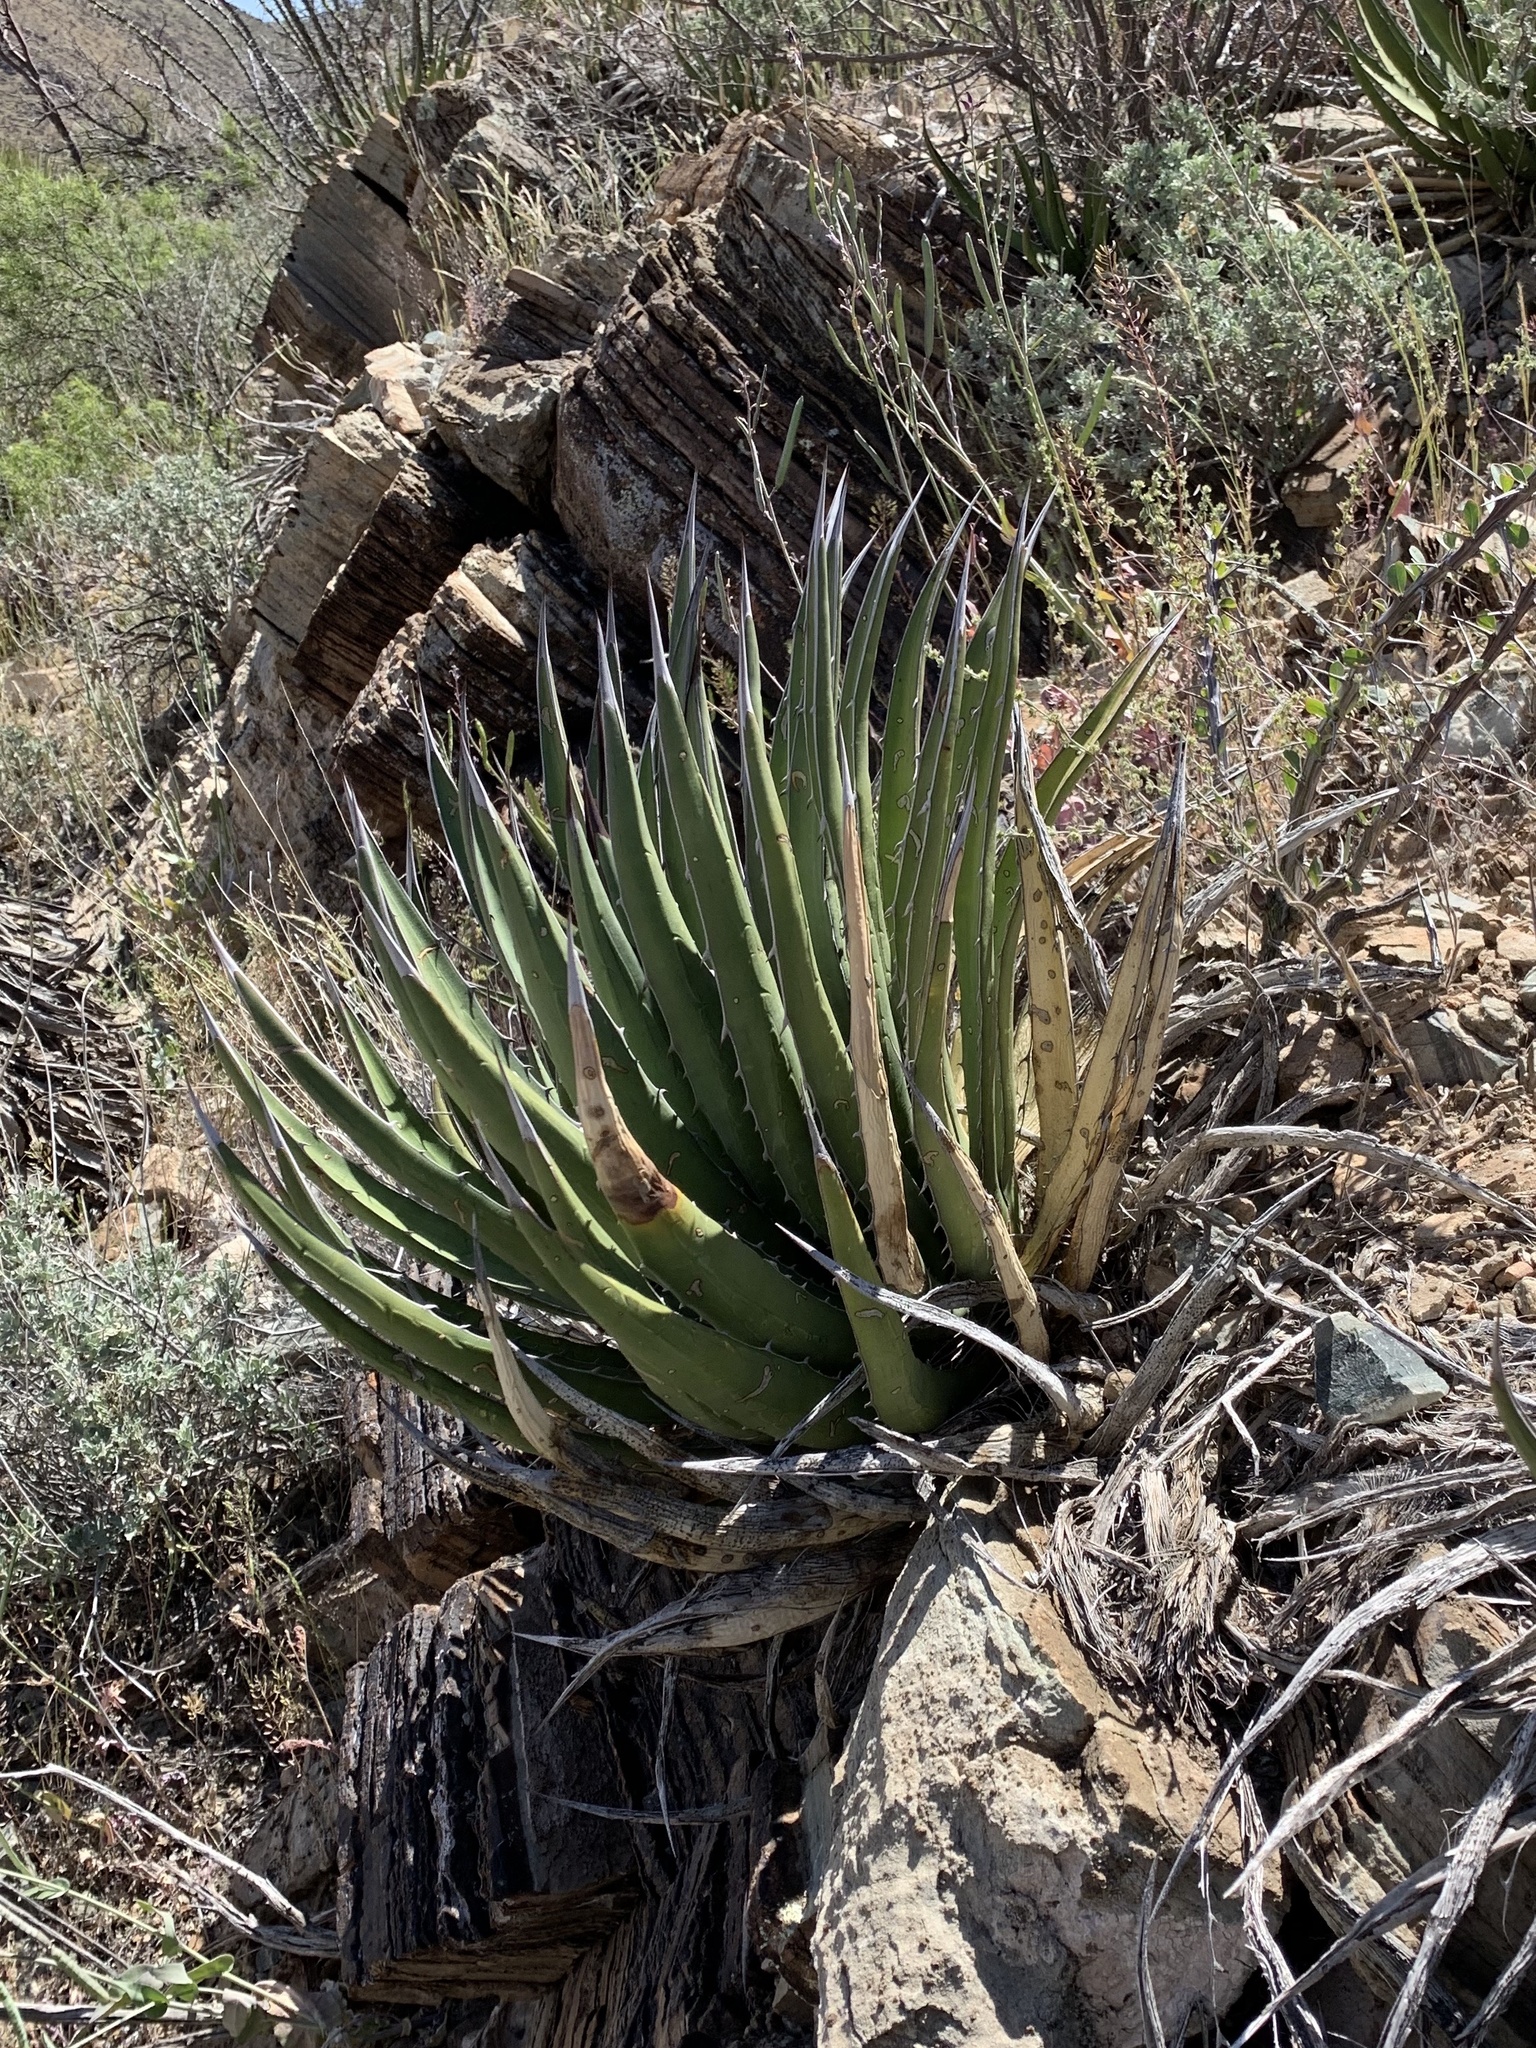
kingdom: Plantae
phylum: Tracheophyta
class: Liliopsida
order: Asparagales
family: Asparagaceae
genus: Agave
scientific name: Agave lechuguilla
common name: Lecheguilla agave
